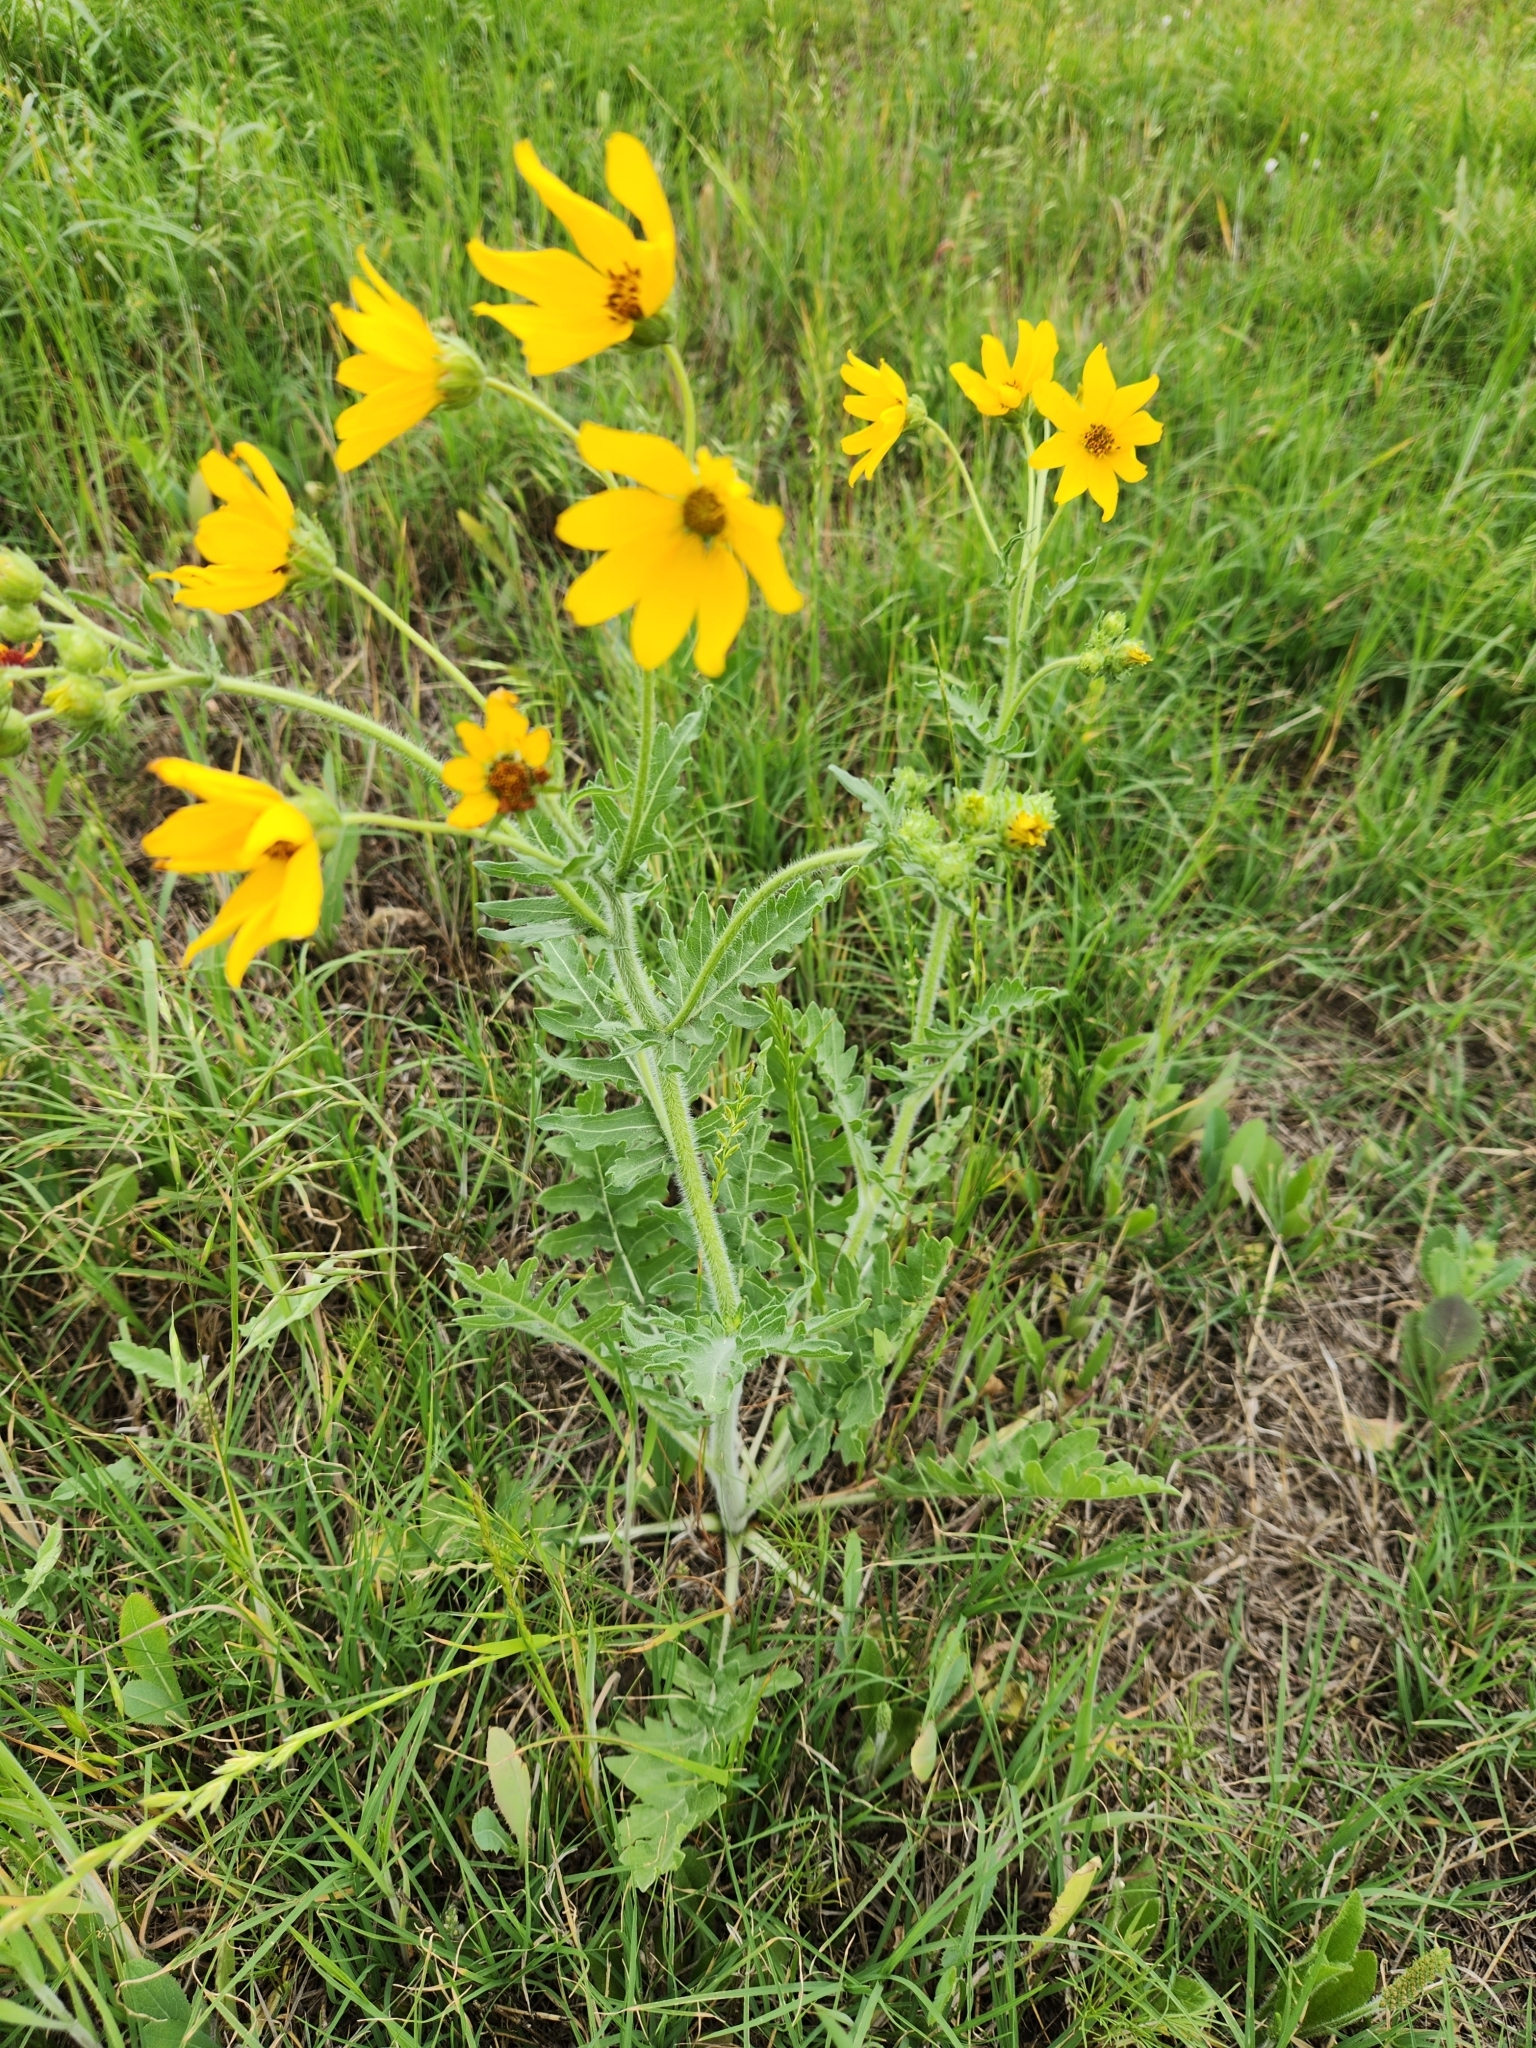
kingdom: Plantae
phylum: Tracheophyta
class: Magnoliopsida
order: Asterales
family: Asteraceae
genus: Engelmannia
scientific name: Engelmannia peristenia
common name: Engelmann's daisy
